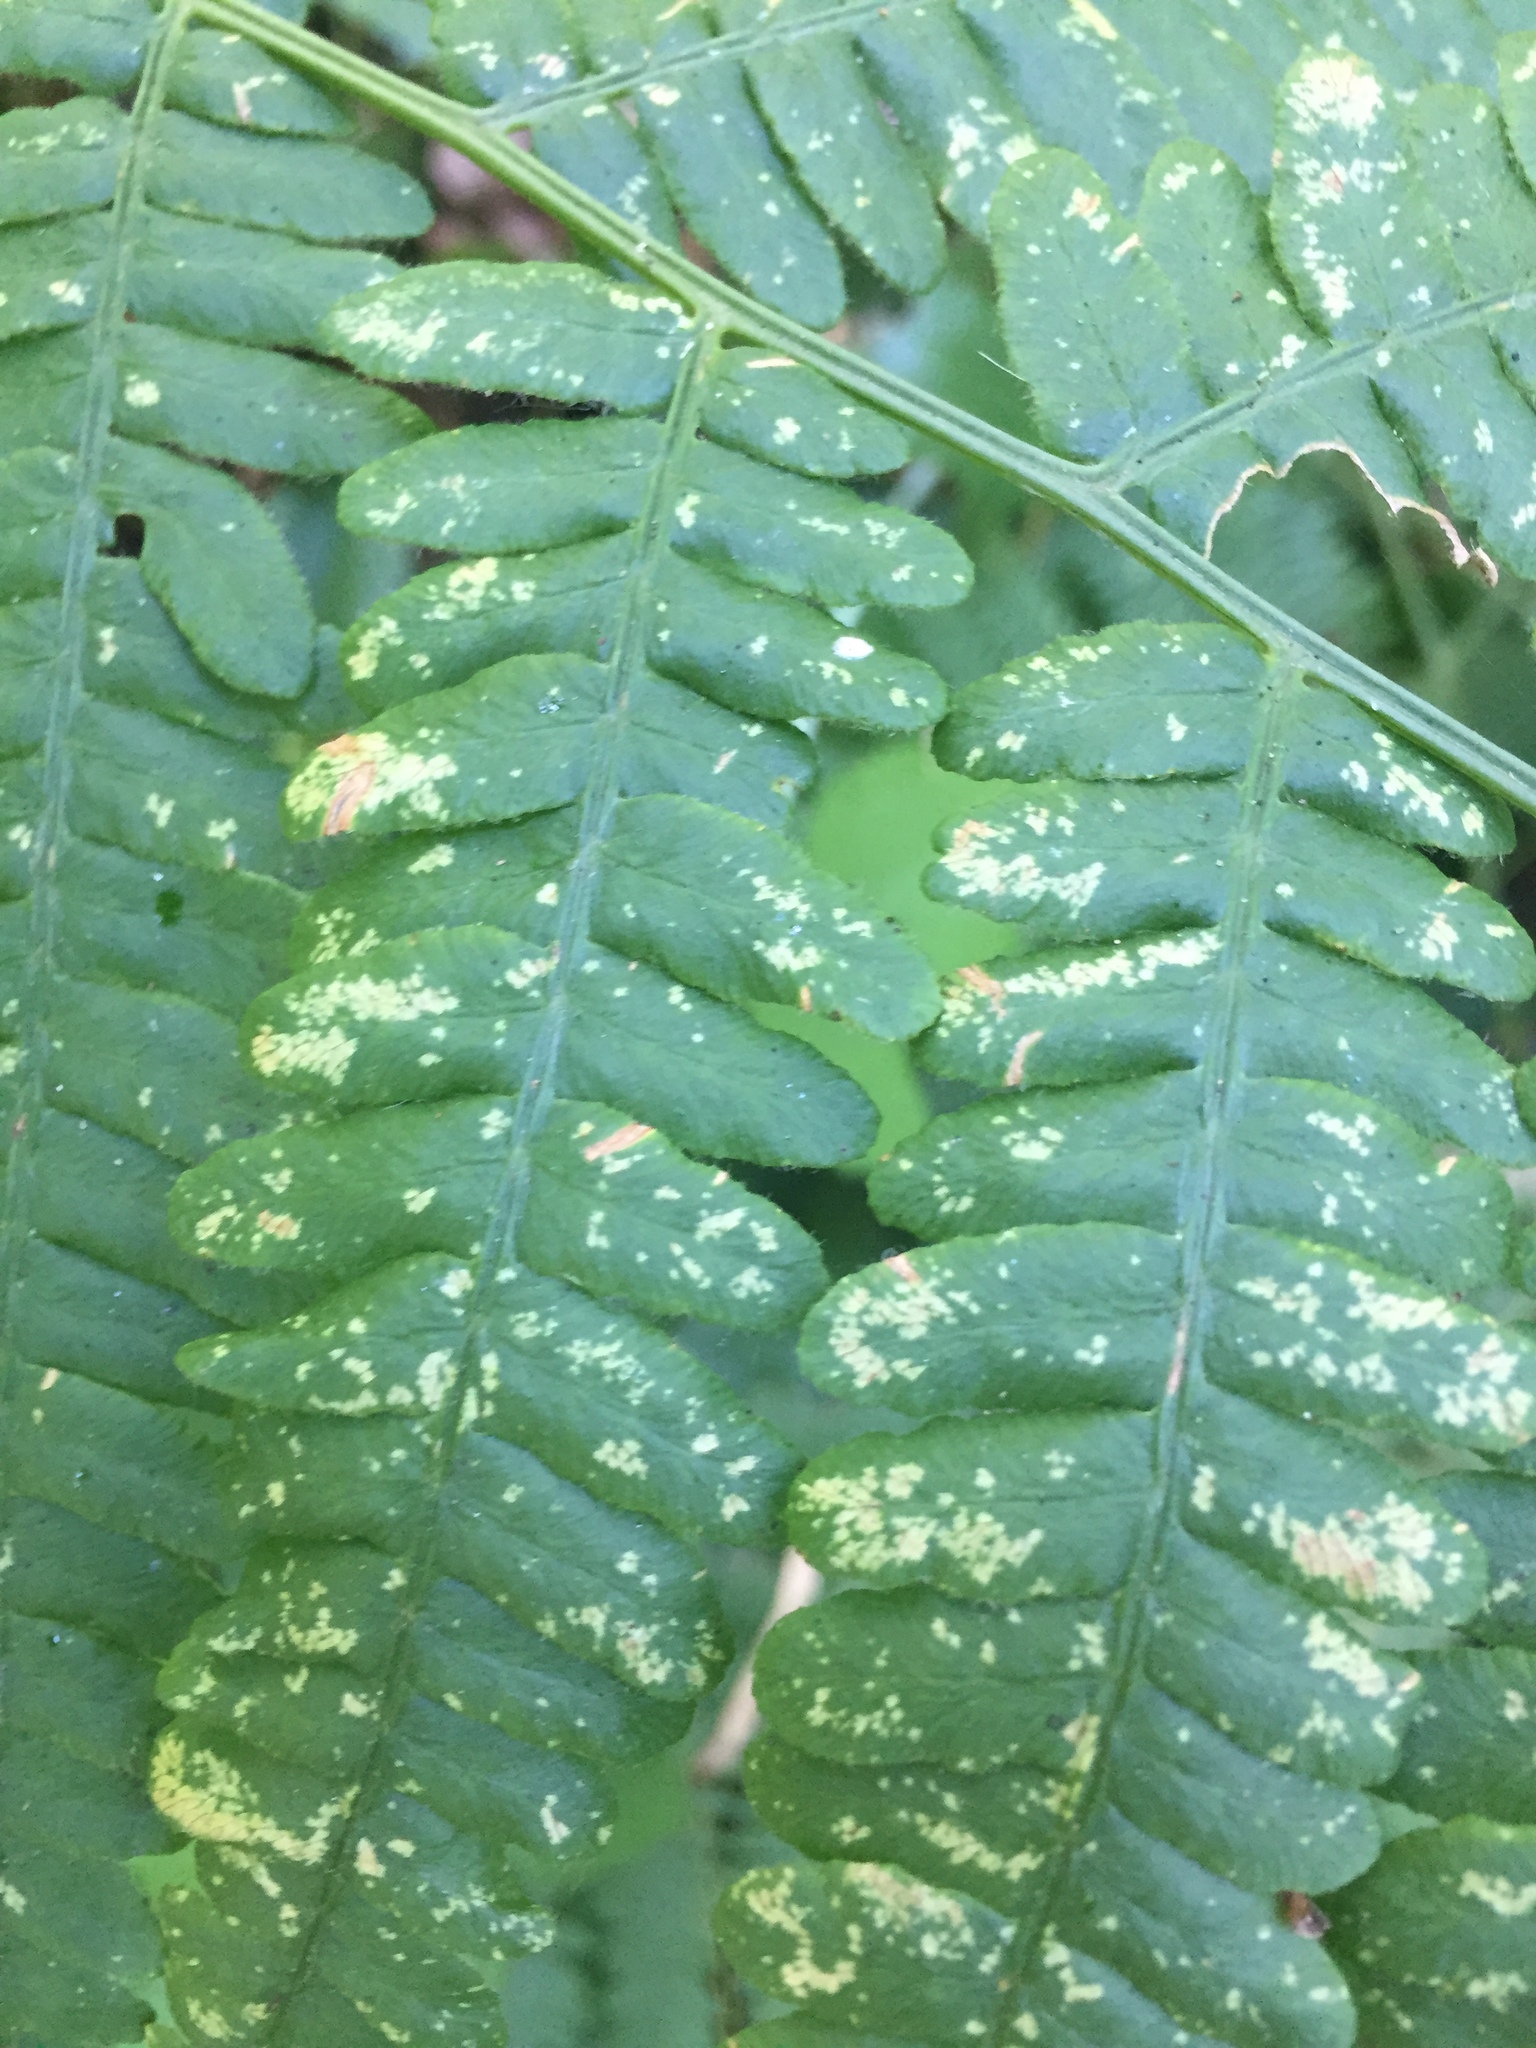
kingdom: Plantae
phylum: Tracheophyta
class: Polypodiopsida
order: Polypodiales
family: Dennstaedtiaceae
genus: Pteridium
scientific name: Pteridium aquilinum
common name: Bracken
